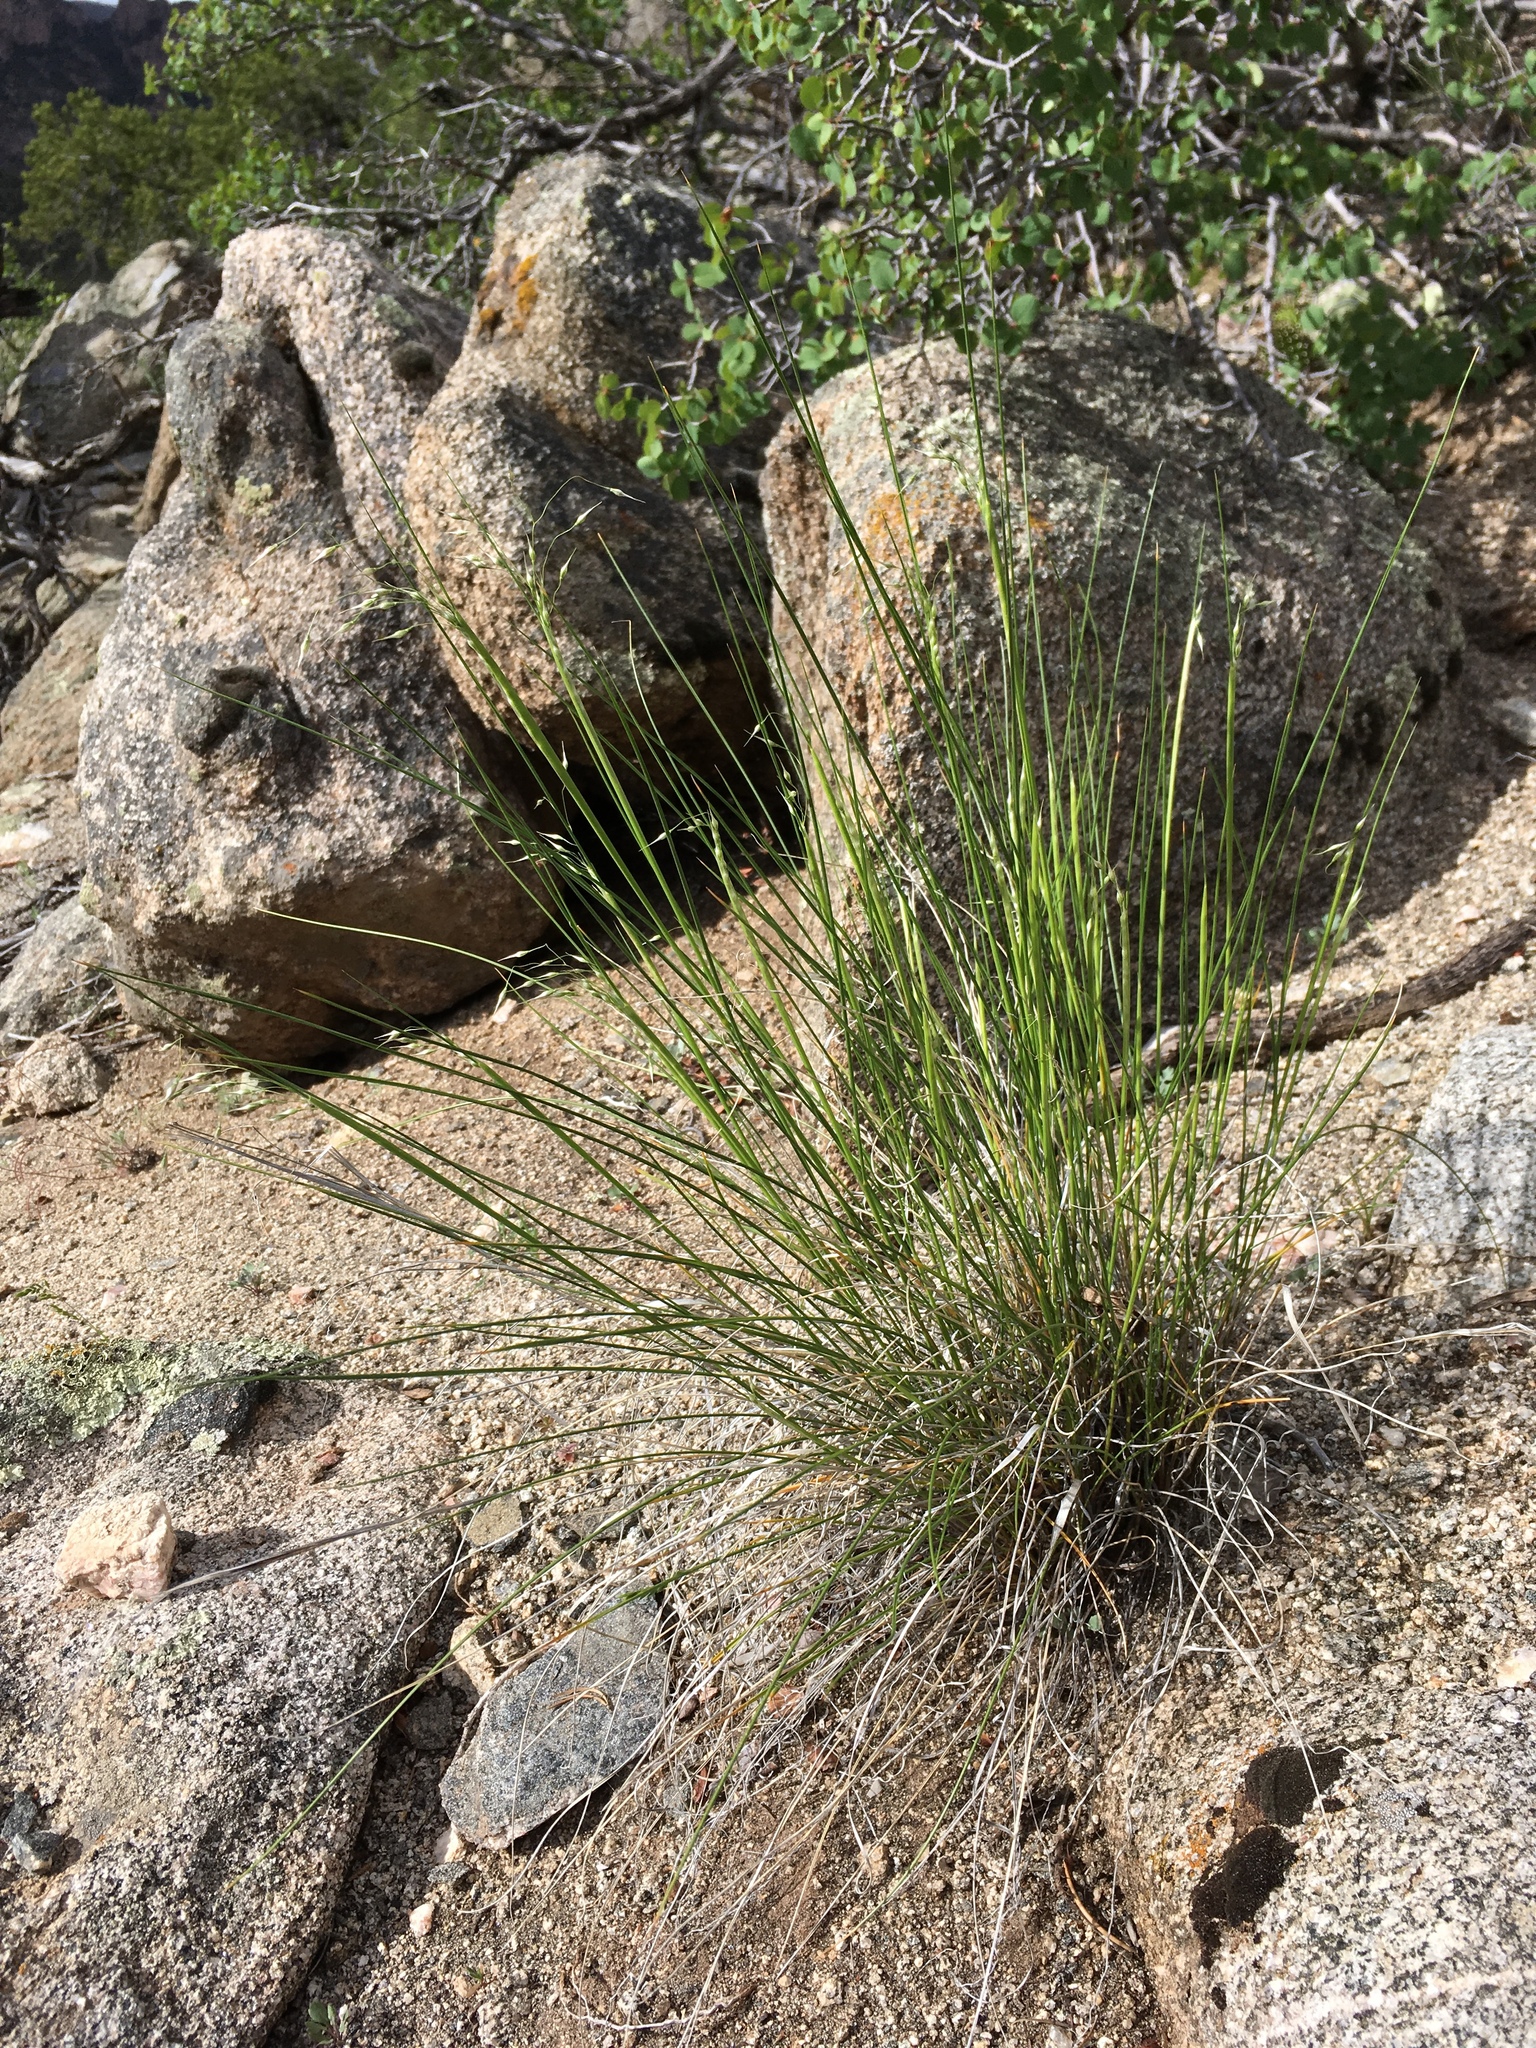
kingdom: Plantae
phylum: Tracheophyta
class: Liliopsida
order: Poales
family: Poaceae
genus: Eriocoma
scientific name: Eriocoma hymenoides
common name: Indian mountain ricegrass
